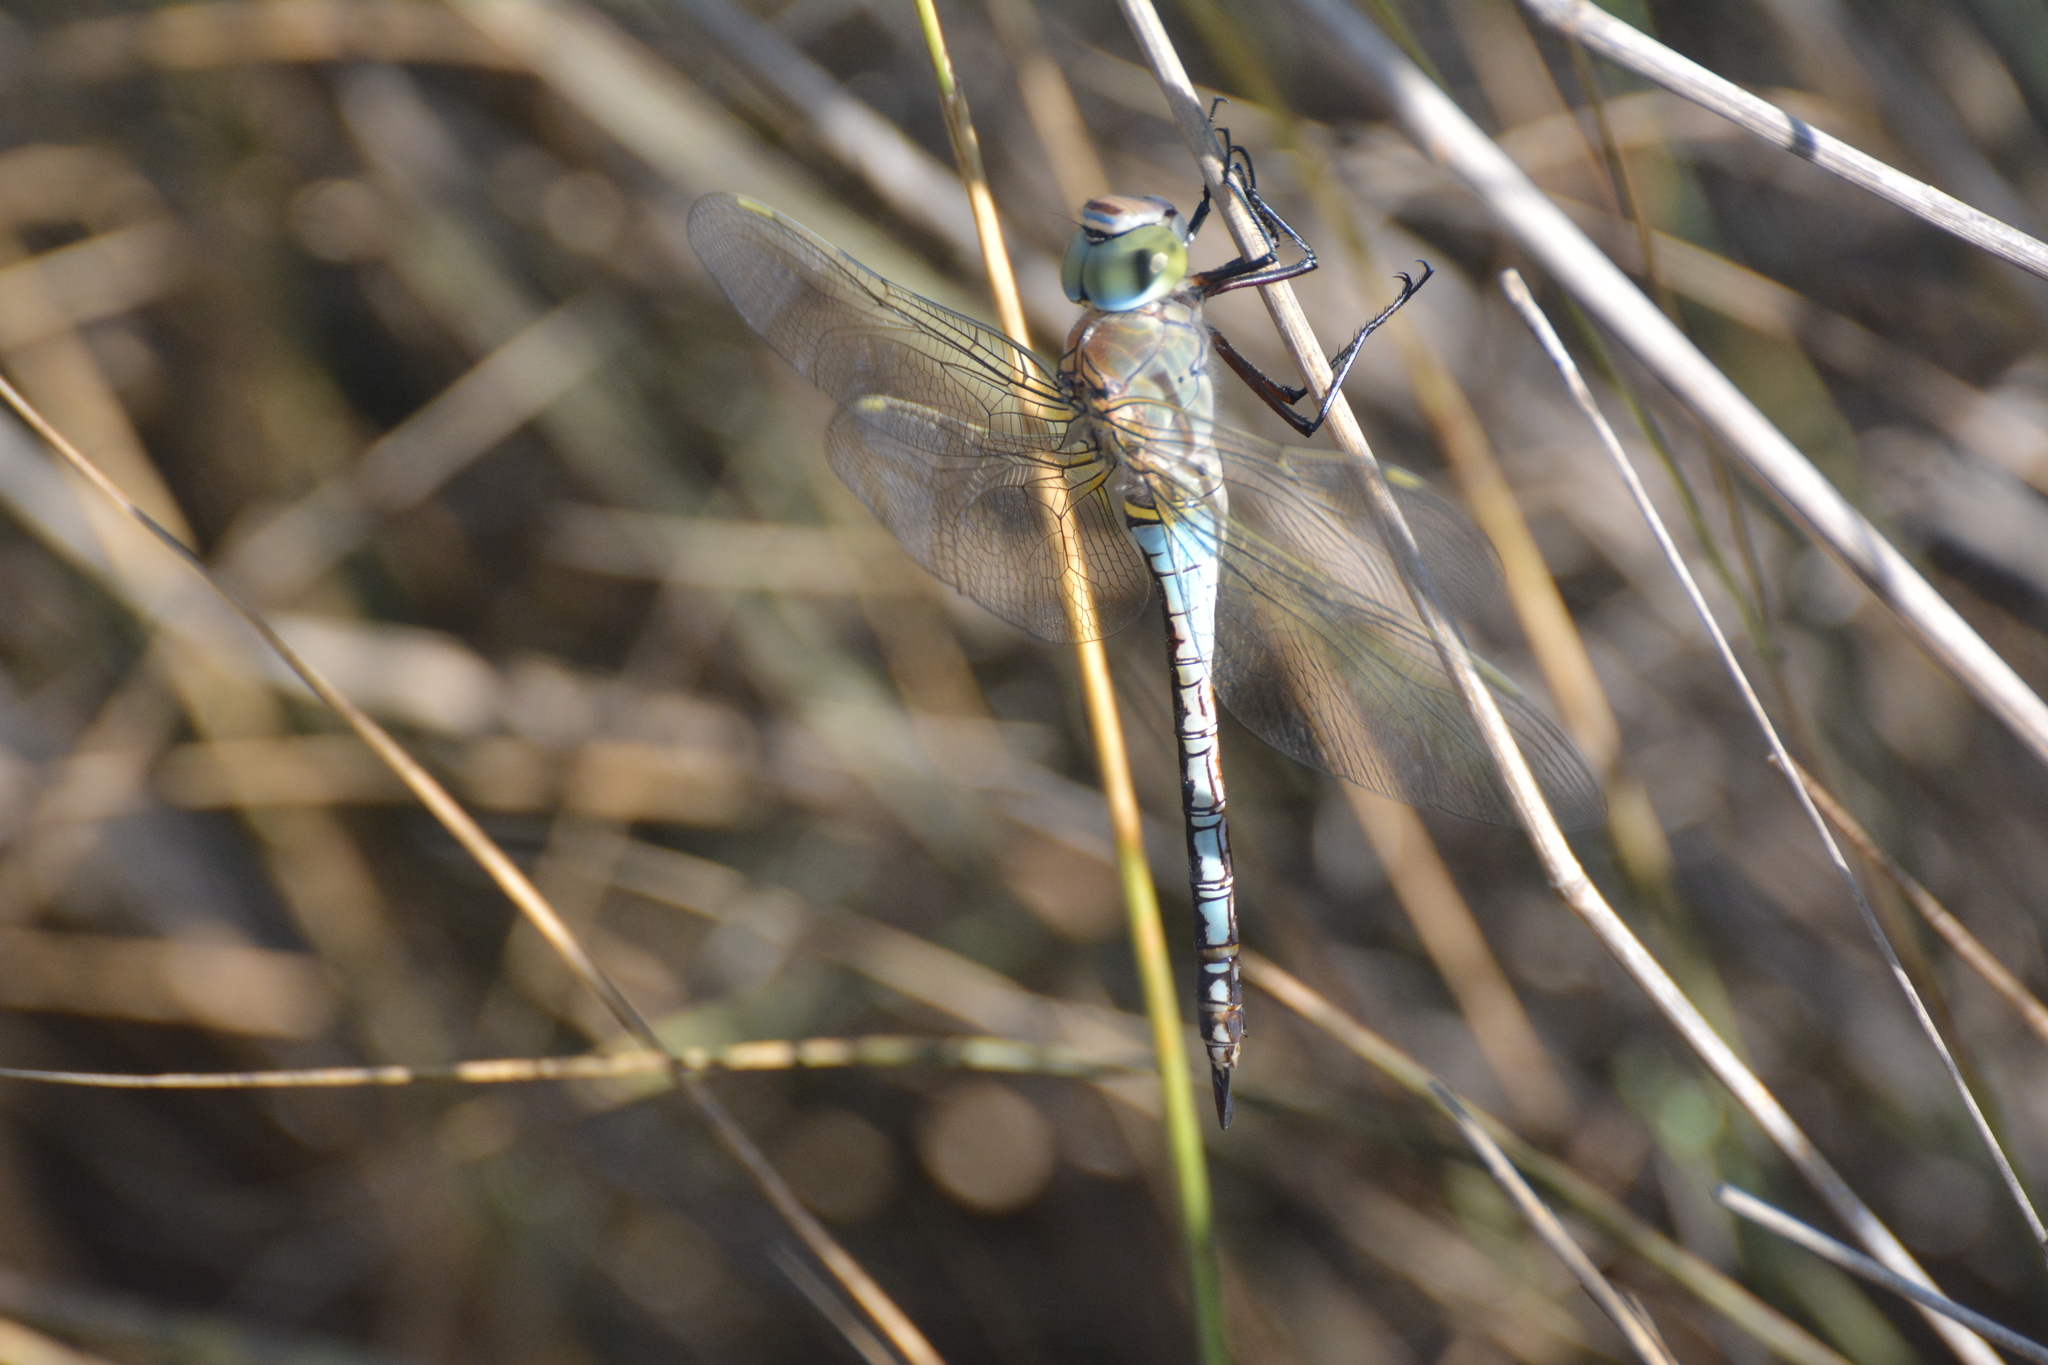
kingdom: Animalia
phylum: Arthropoda
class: Insecta
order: Odonata
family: Aeshnidae
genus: Anax
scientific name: Anax parthenope
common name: Lesser emperor
